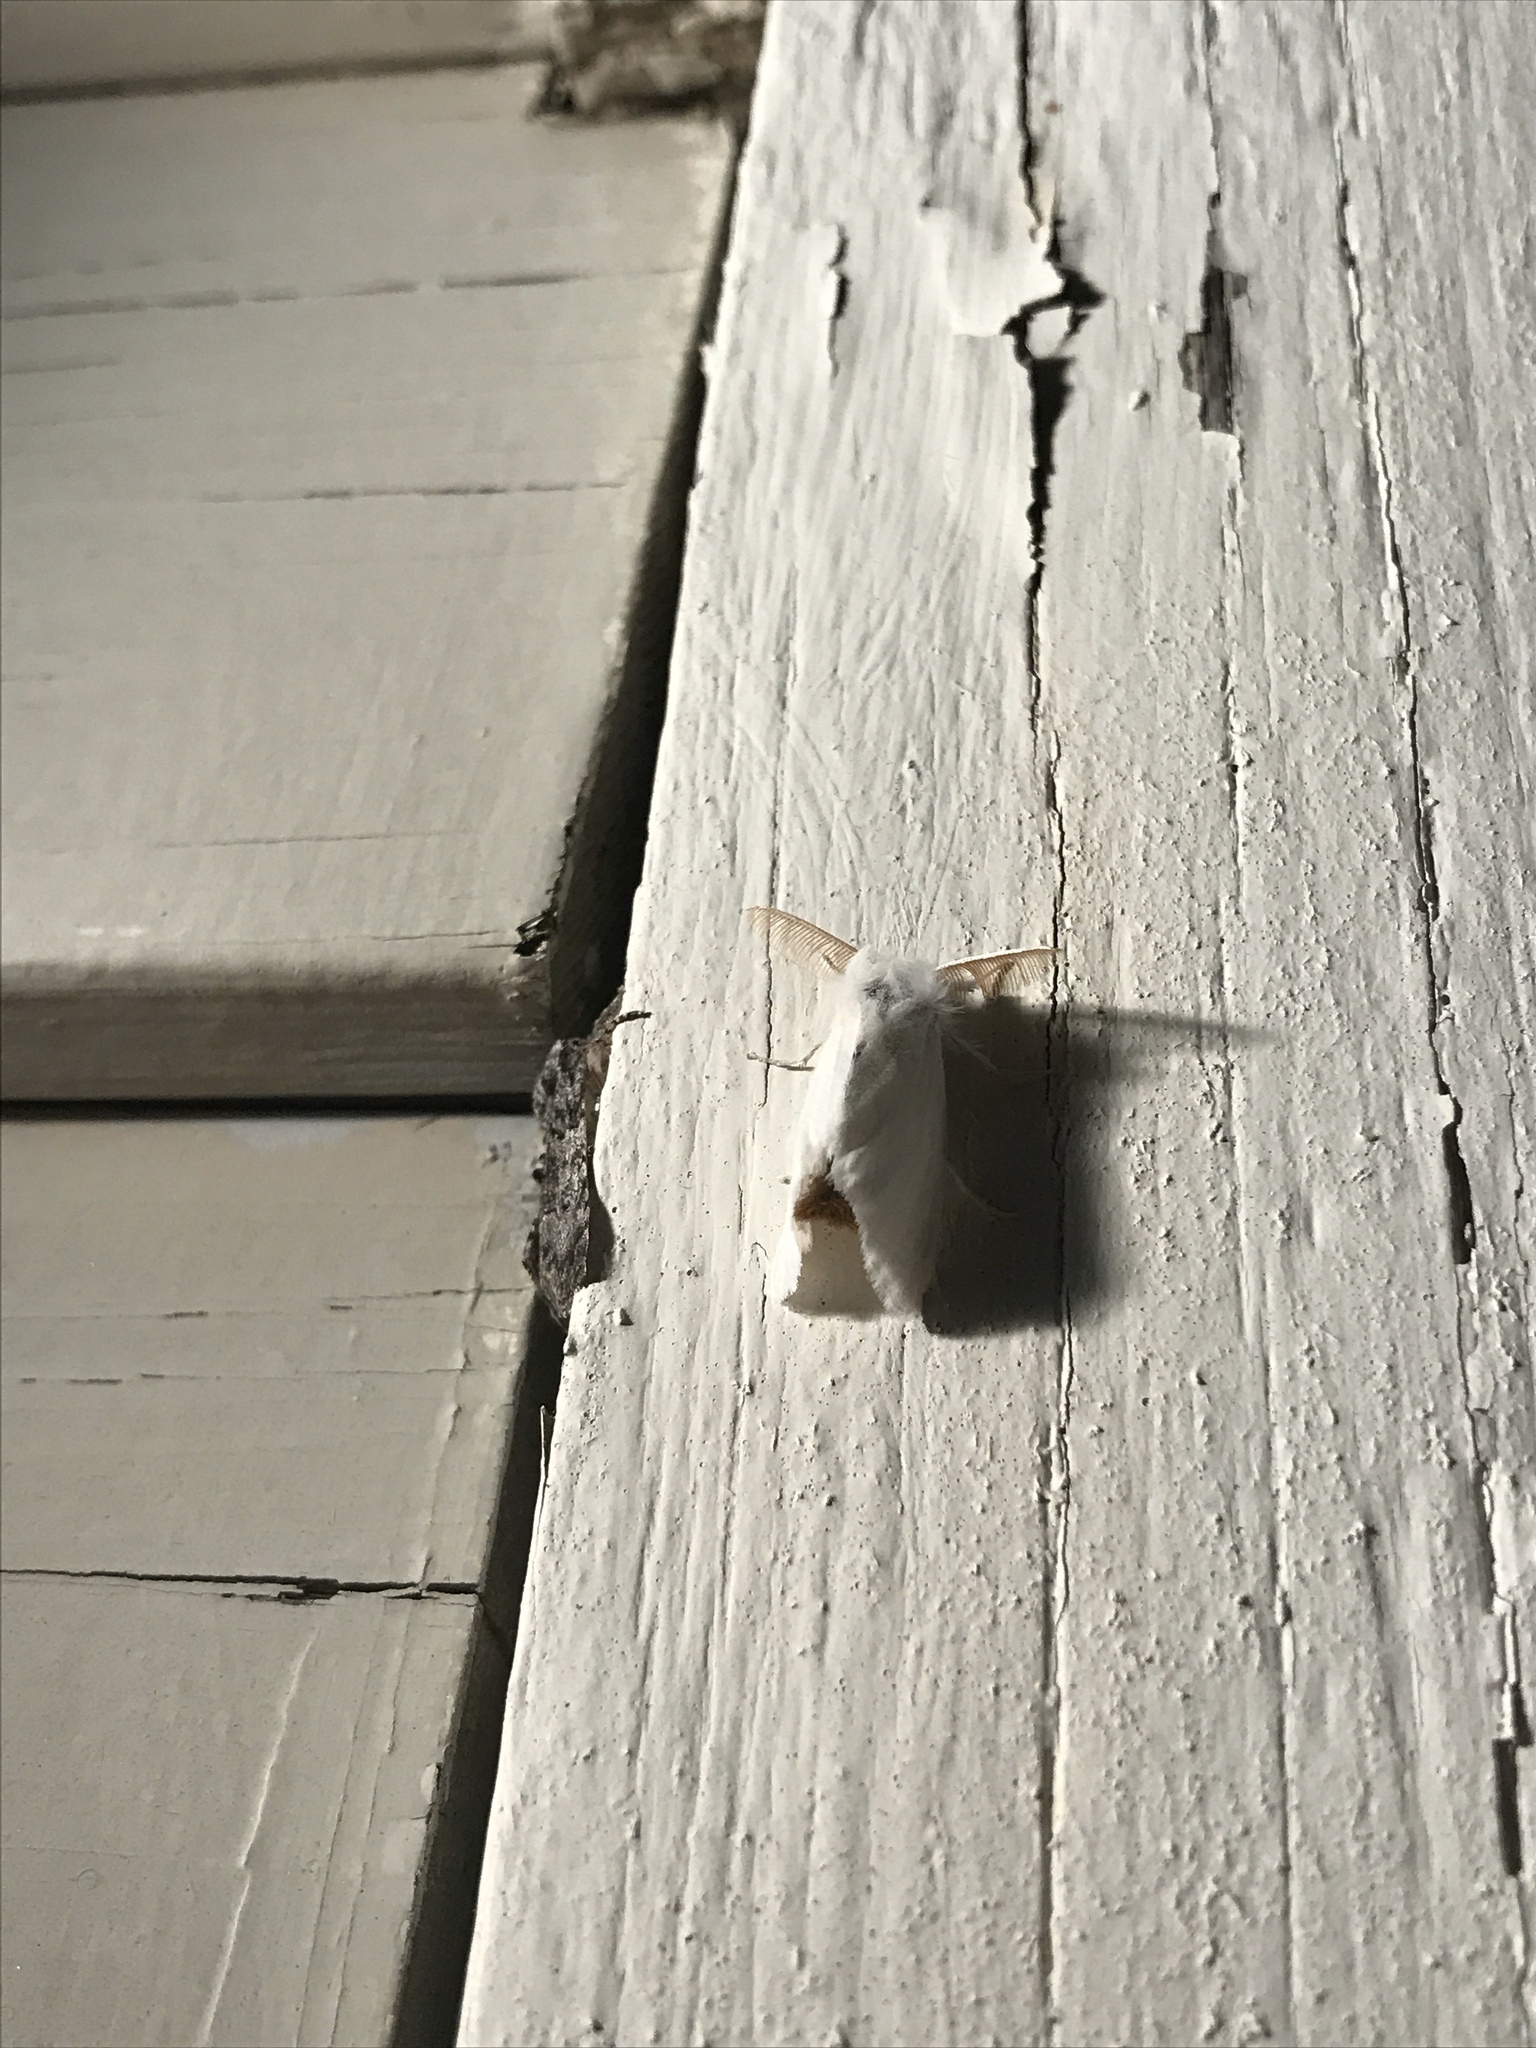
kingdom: Animalia
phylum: Arthropoda
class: Insecta
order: Lepidoptera
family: Erebidae
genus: Euproctis
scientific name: Euproctis chrysorrhoea
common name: Brown-tail
